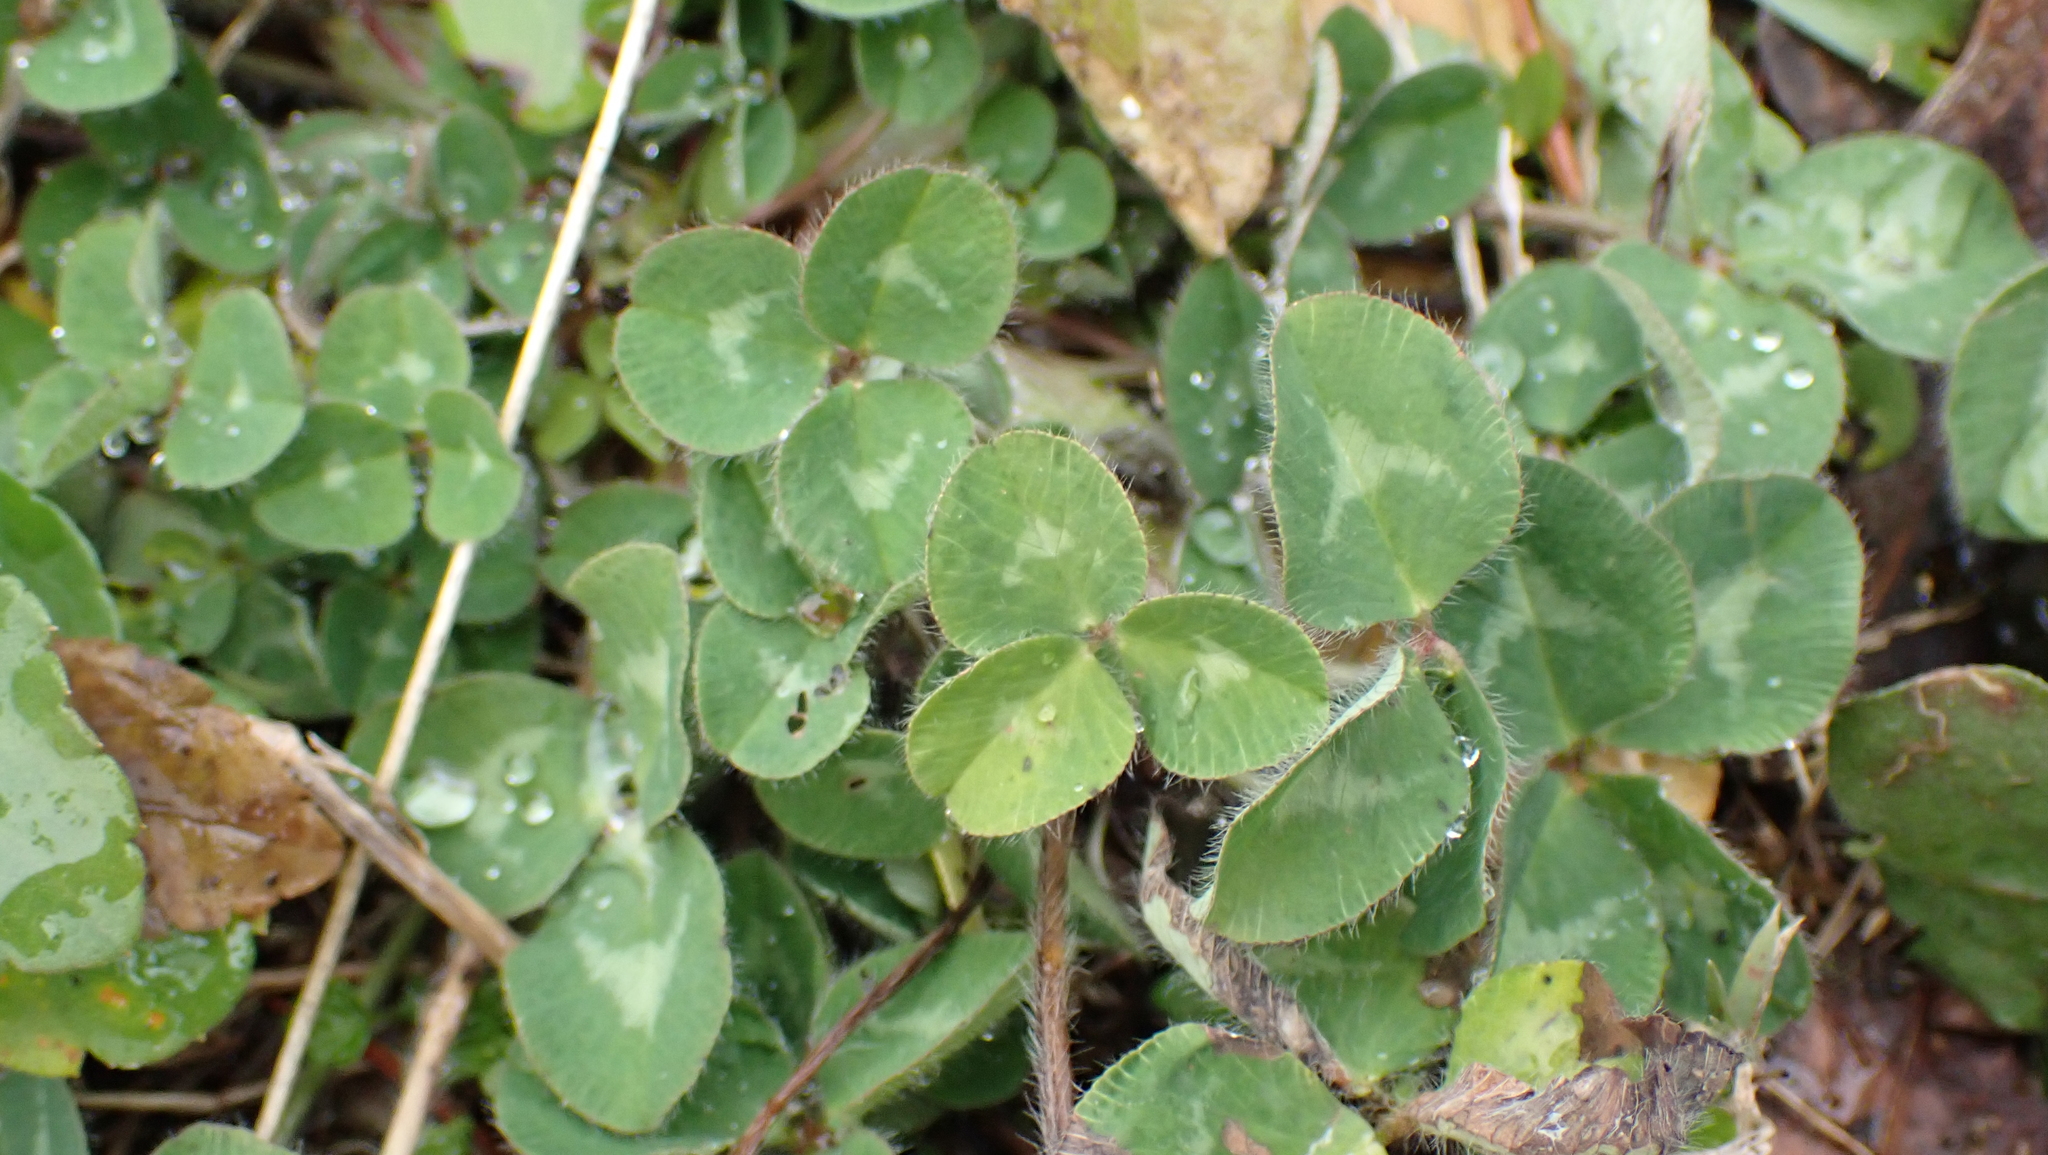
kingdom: Plantae
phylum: Tracheophyta
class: Magnoliopsida
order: Fabales
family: Fabaceae
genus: Trifolium
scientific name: Trifolium pratense
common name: Red clover
